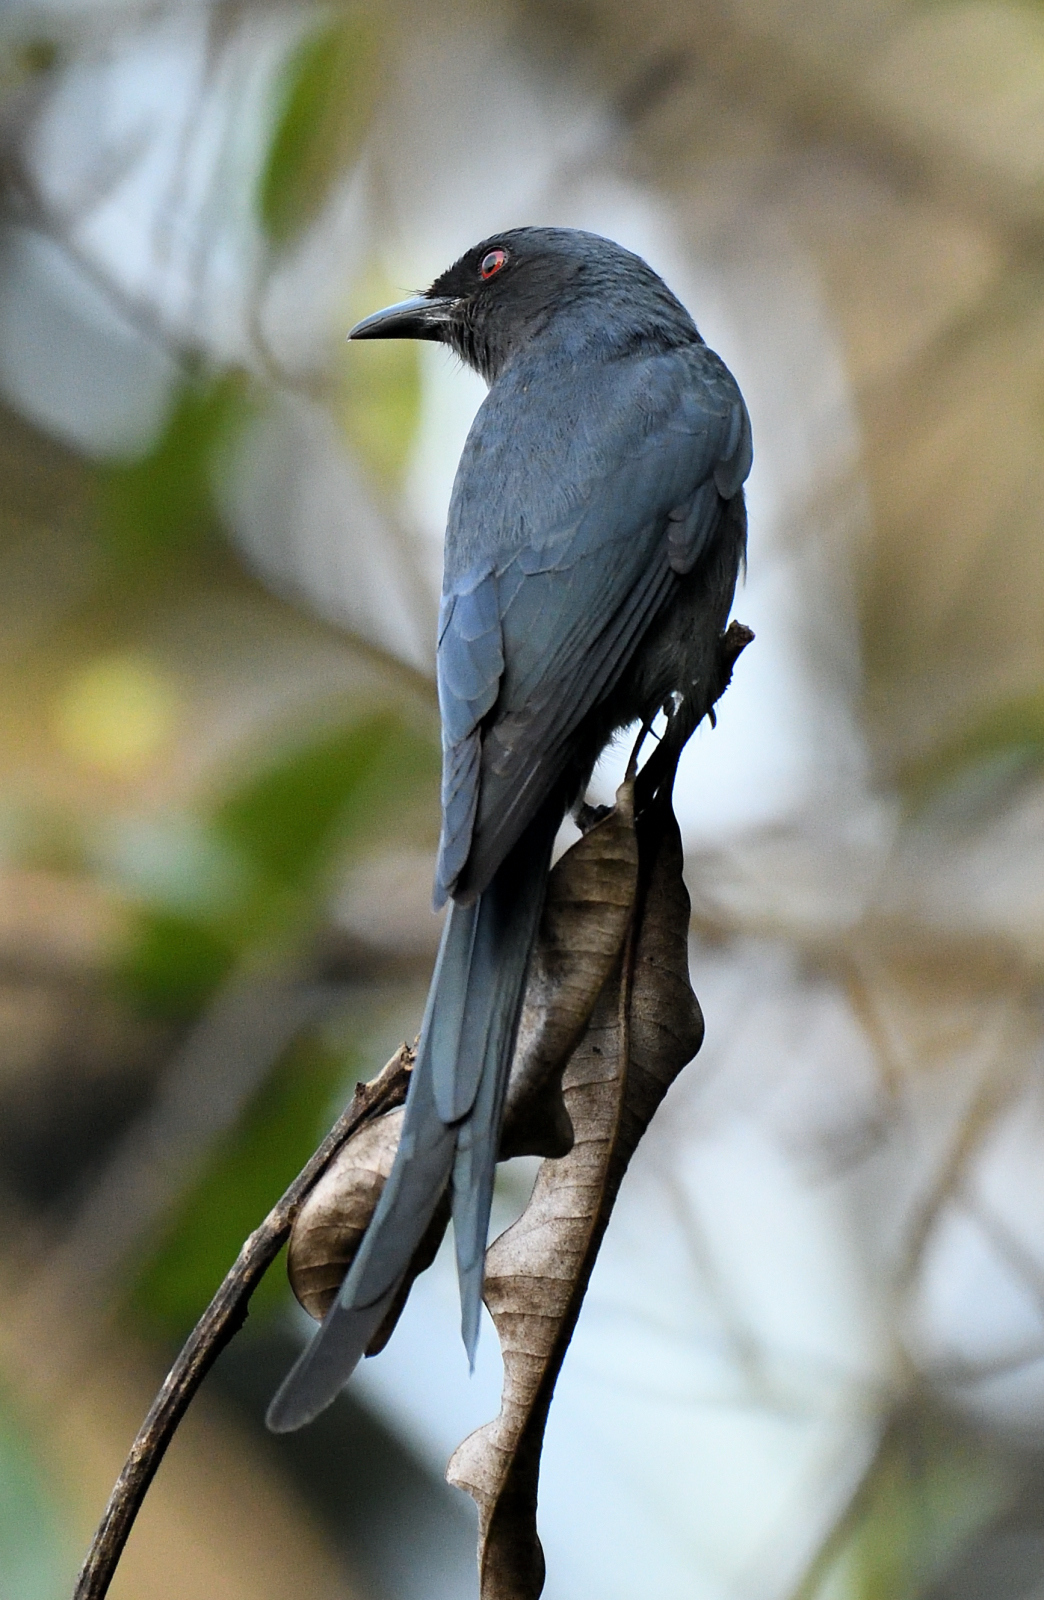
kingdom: Animalia
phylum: Chordata
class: Aves
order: Passeriformes
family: Dicruridae
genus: Dicrurus
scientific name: Dicrurus leucophaeus
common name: Ashy drongo
